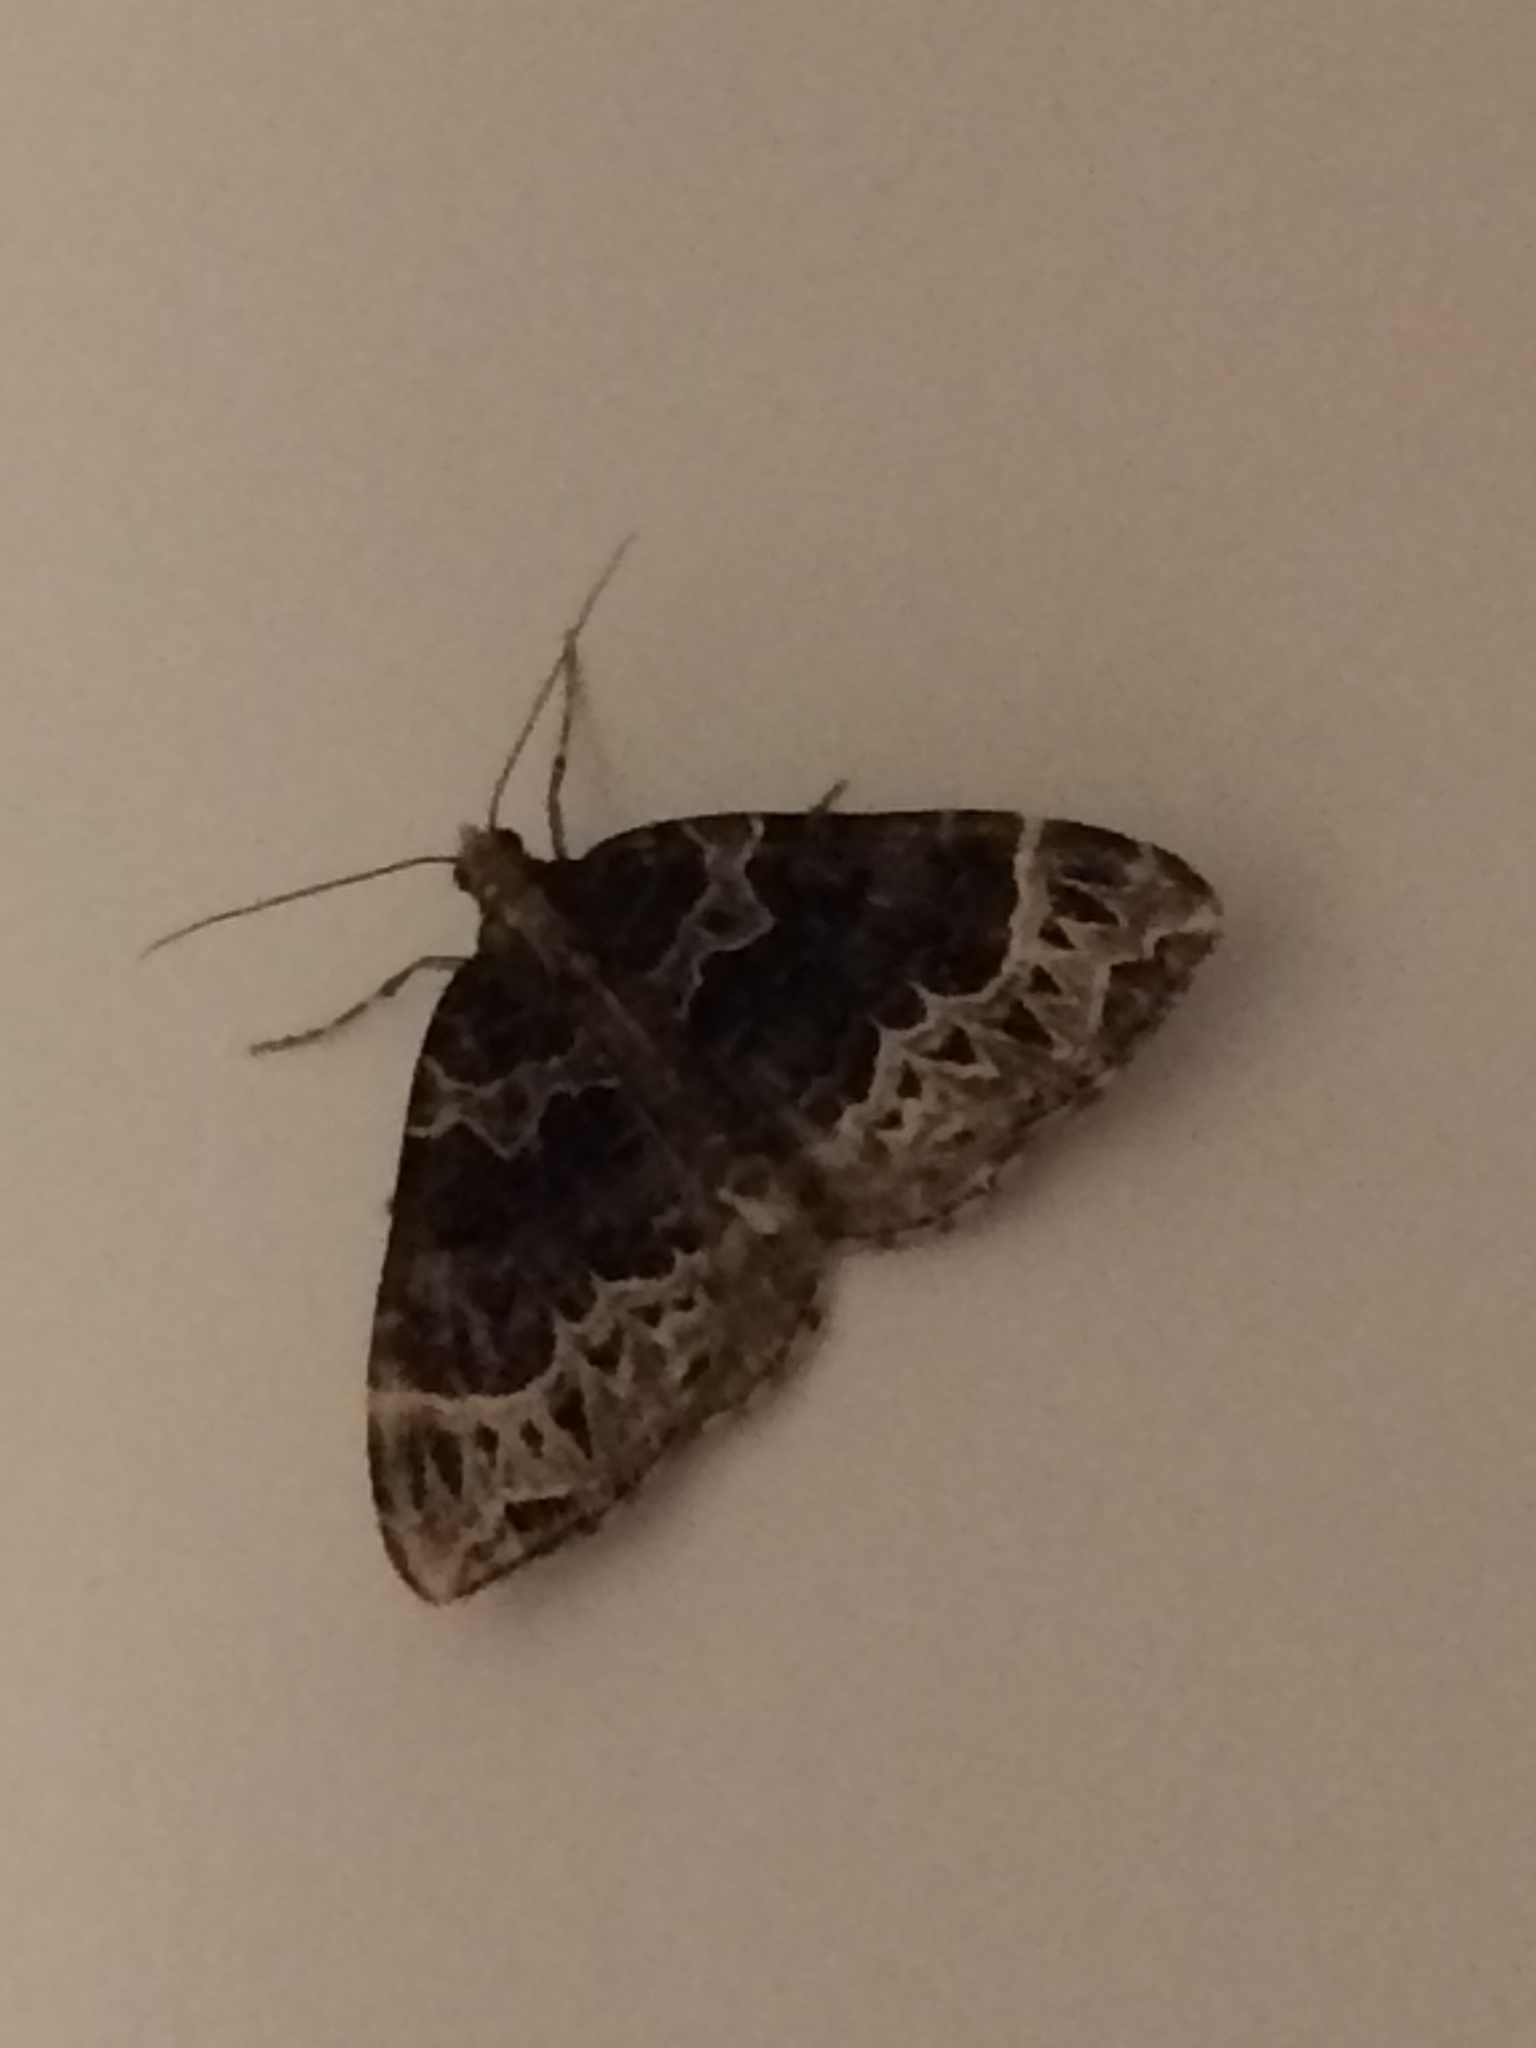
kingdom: Animalia
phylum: Arthropoda
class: Insecta
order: Lepidoptera
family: Geometridae
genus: Ecliptopera
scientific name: Ecliptopera silaceata
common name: Small phoenix
